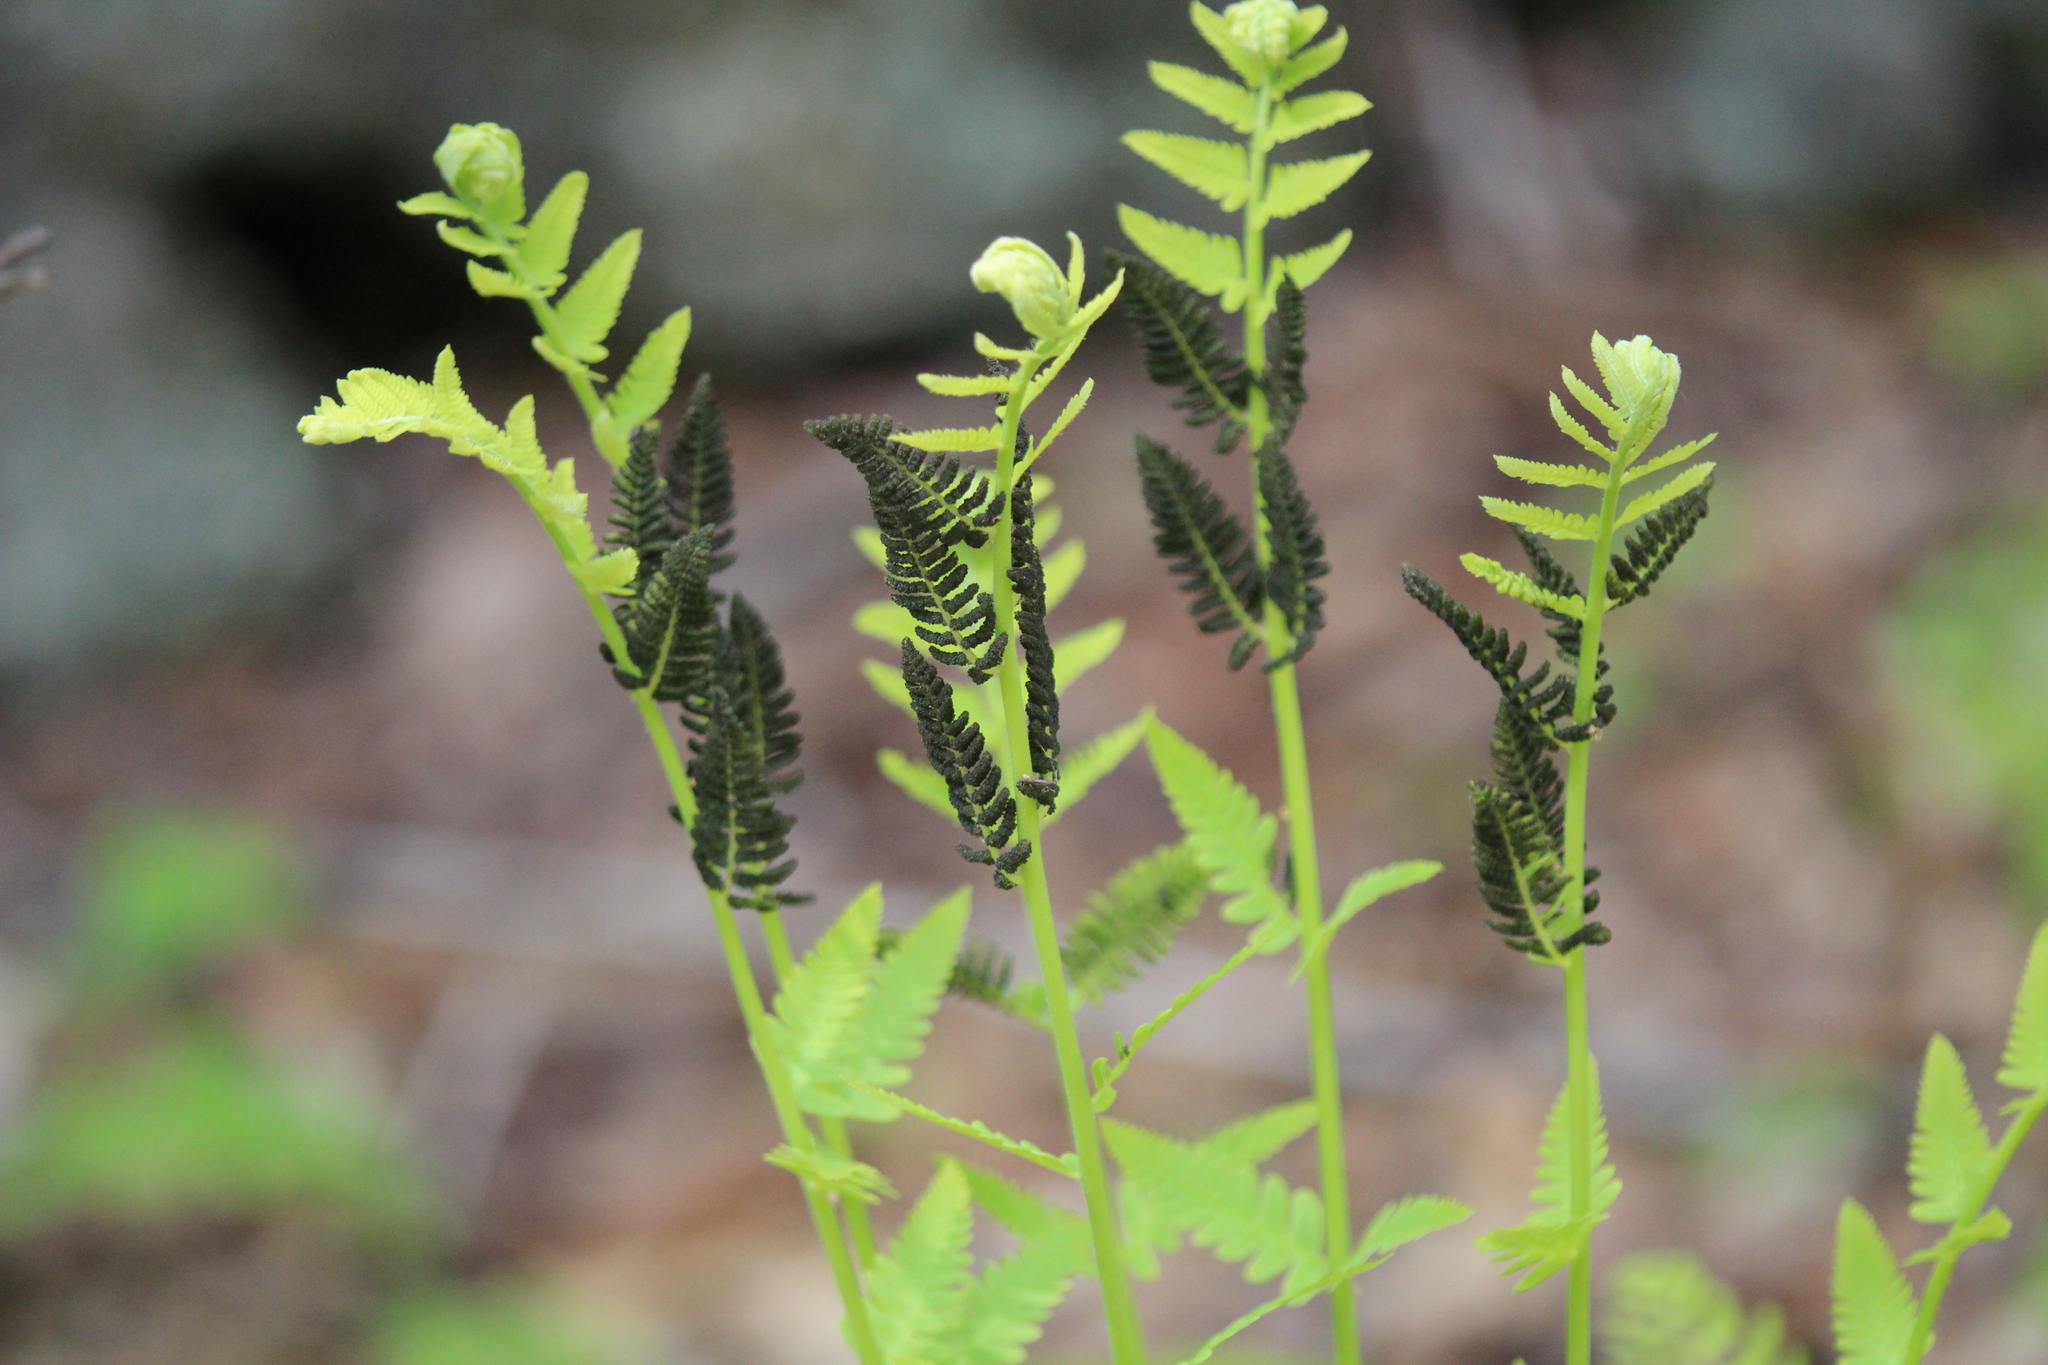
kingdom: Plantae
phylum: Tracheophyta
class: Polypodiopsida
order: Osmundales
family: Osmundaceae
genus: Claytosmunda
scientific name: Claytosmunda claytoniana
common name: Clayton's fern
